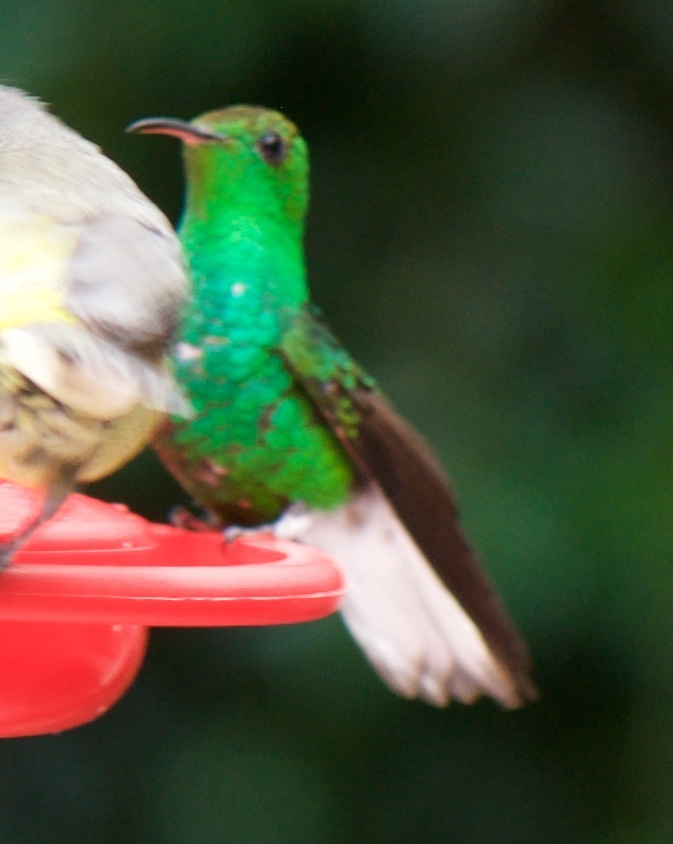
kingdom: Animalia
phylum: Chordata
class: Aves
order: Apodiformes
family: Trochilidae
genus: Microchera
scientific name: Microchera cupreiceps
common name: Coppery-headed emerald
